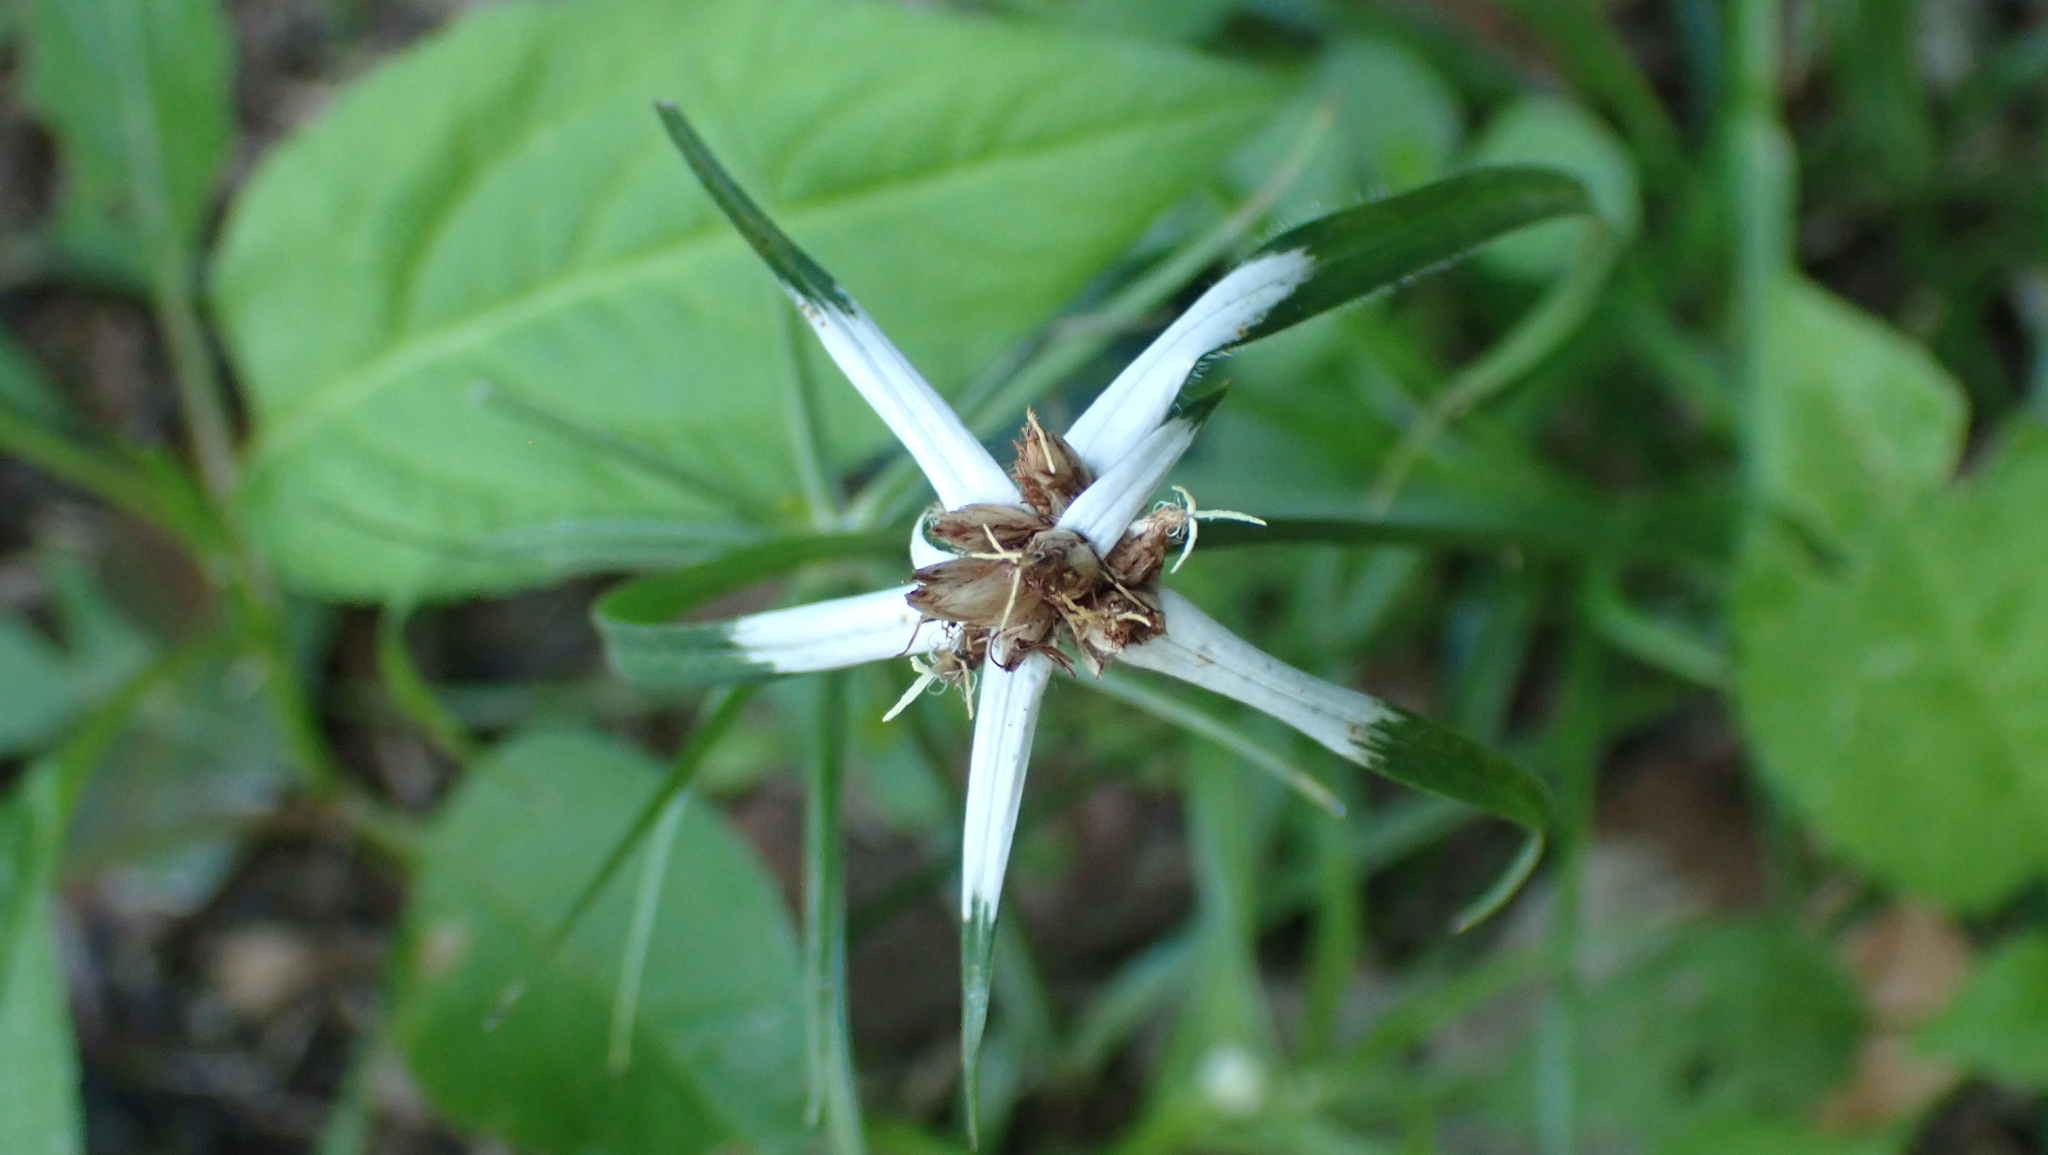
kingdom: Plantae
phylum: Tracheophyta
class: Liliopsida
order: Poales
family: Cyperaceae
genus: Rhynchospora
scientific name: Rhynchospora pura
